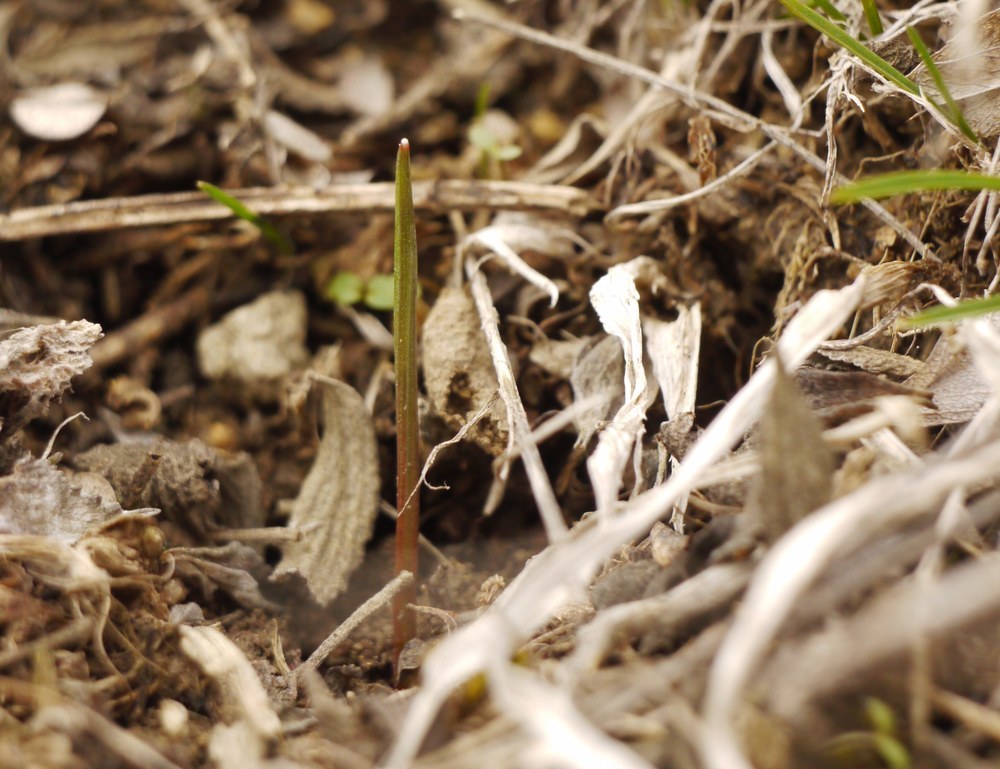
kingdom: Plantae
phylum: Tracheophyta
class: Liliopsida
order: Asparagales
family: Iridaceae
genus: Crocus
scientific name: Crocus reticulatus
